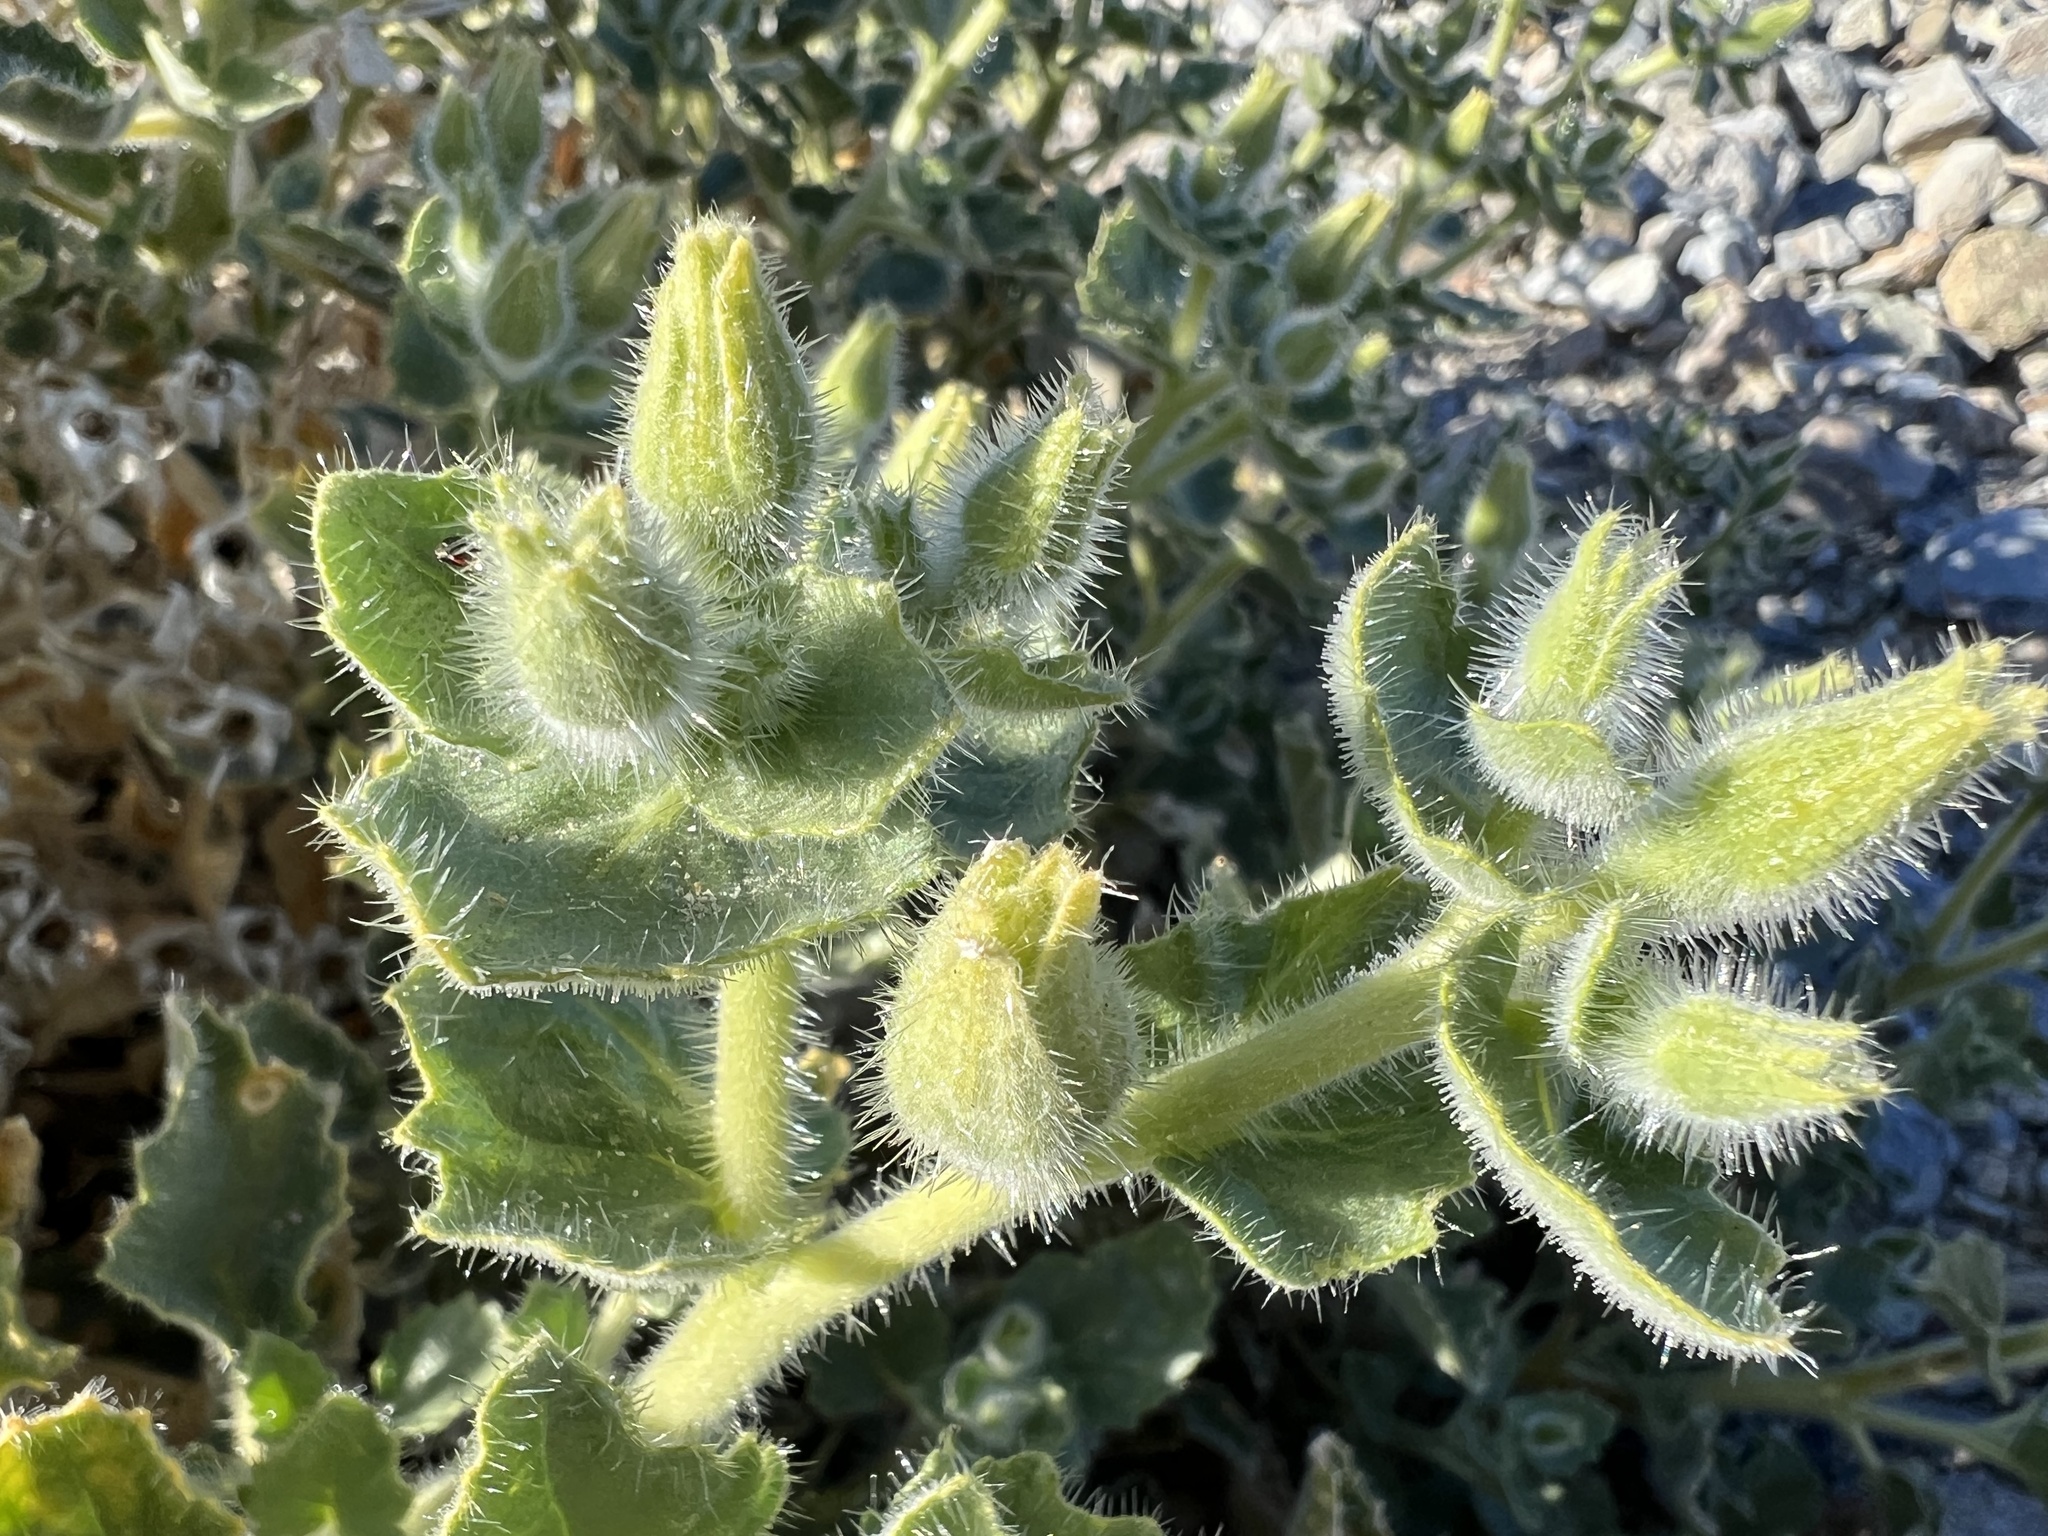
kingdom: Plantae
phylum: Tracheophyta
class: Magnoliopsida
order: Cornales
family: Loasaceae
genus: Eucnide
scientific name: Eucnide urens
